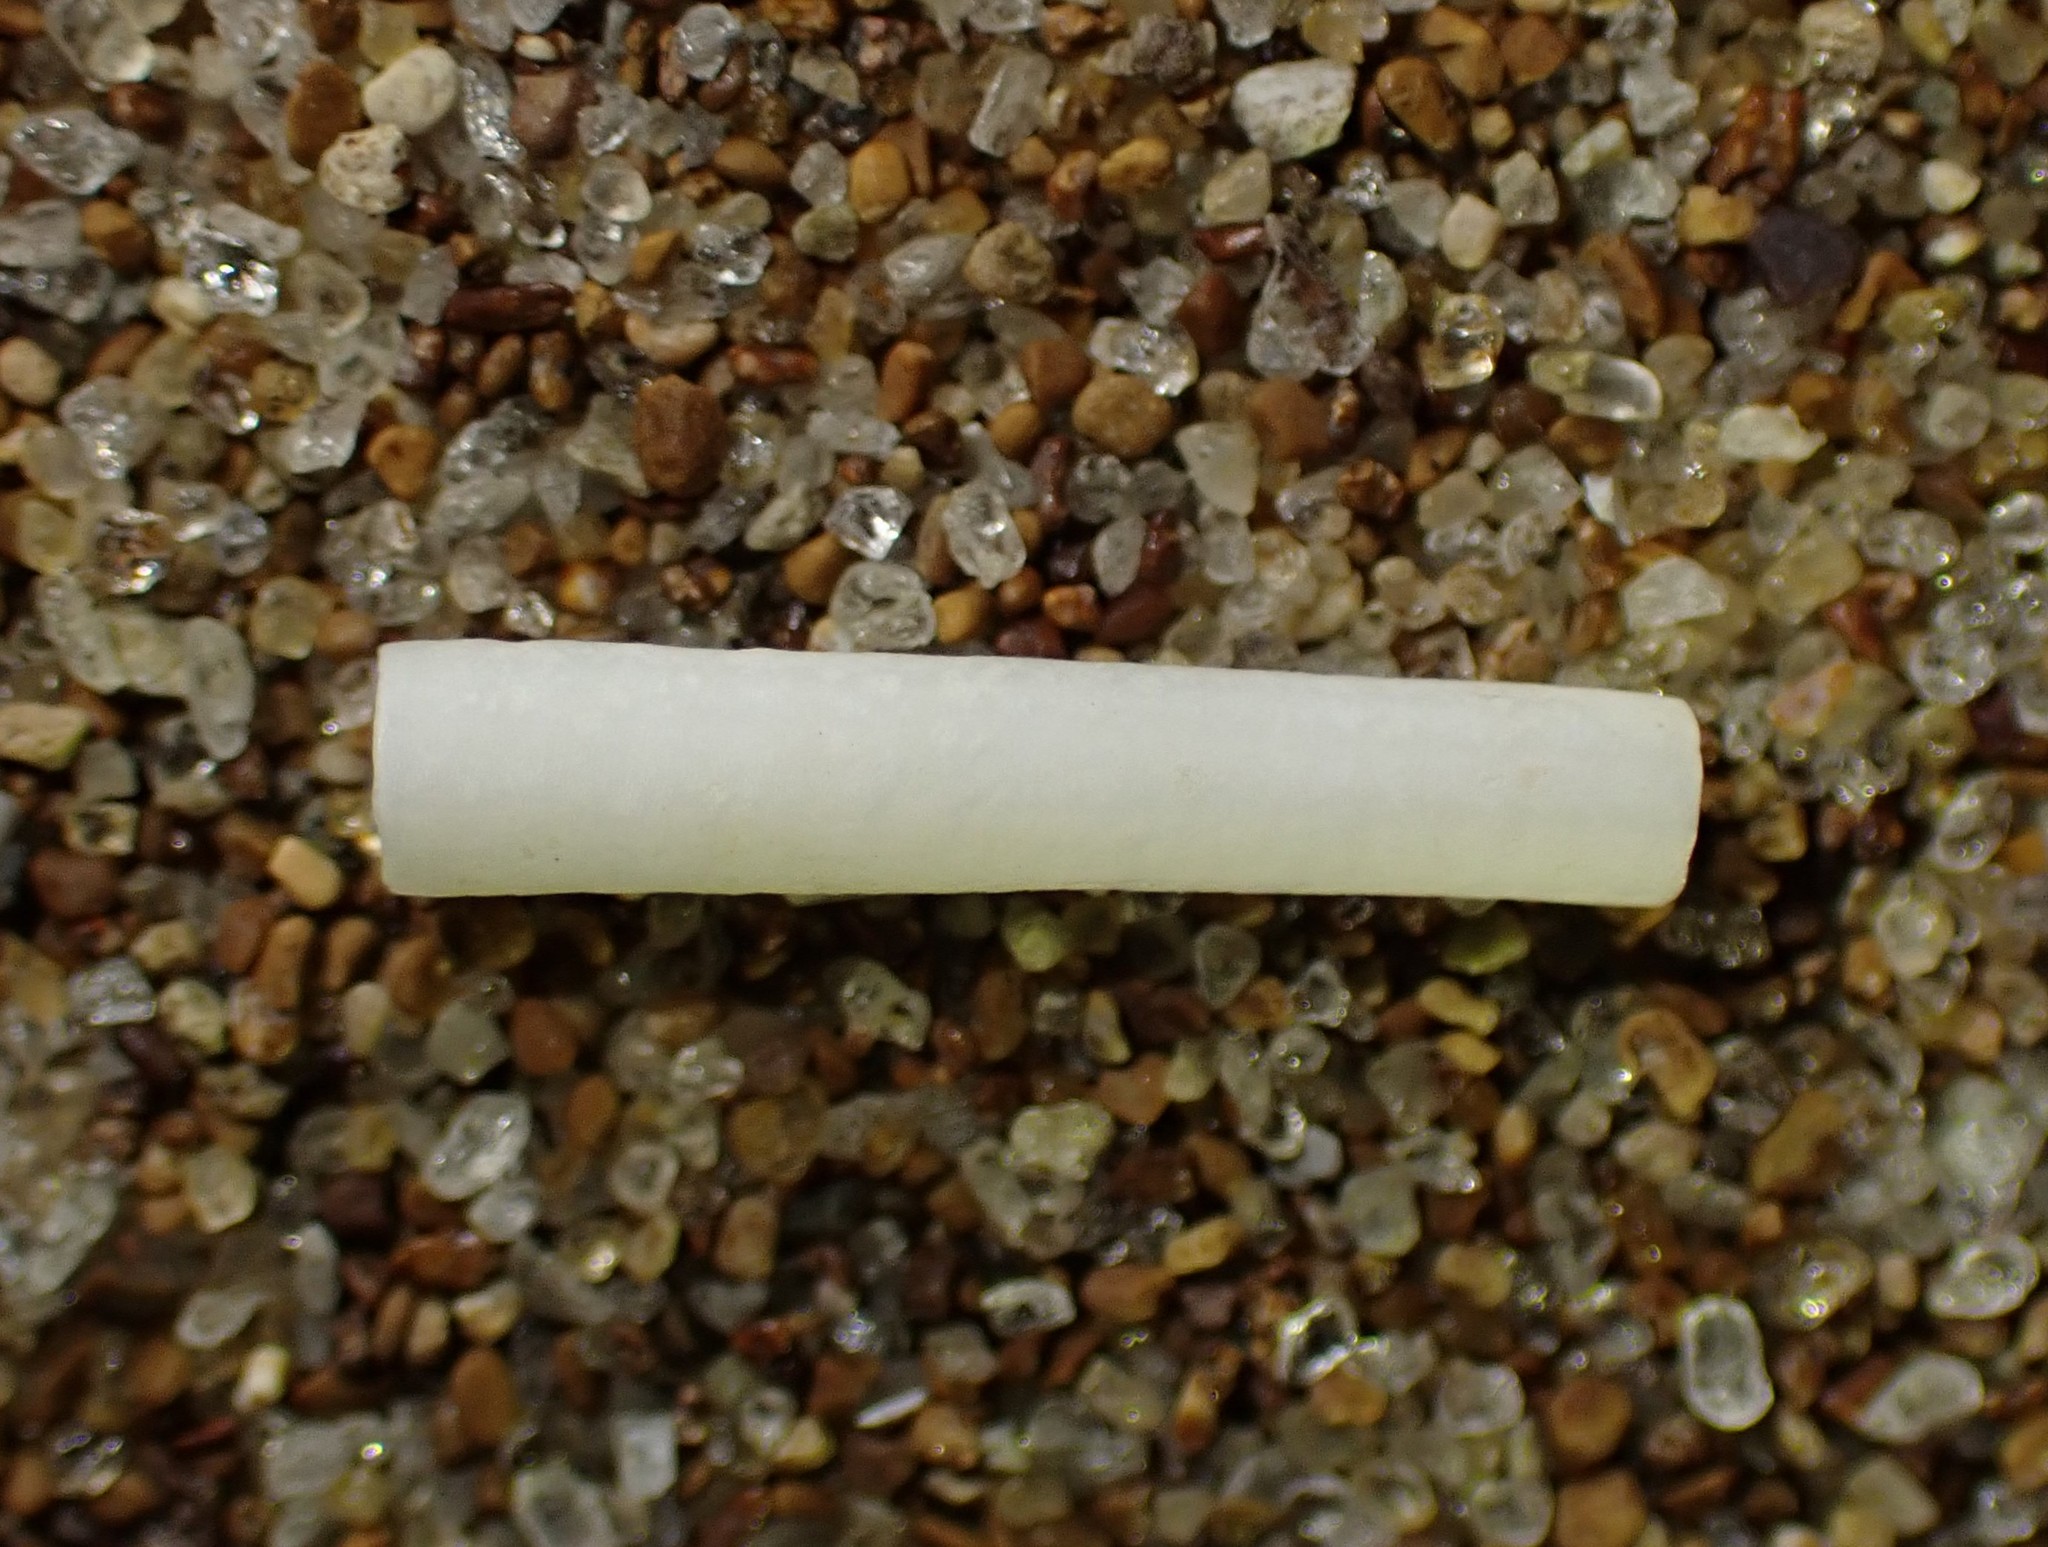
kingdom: Animalia
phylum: Mollusca
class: Scaphopoda
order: Dentaliida
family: Dentaliidae
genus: Antalis
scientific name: Antalis nana
